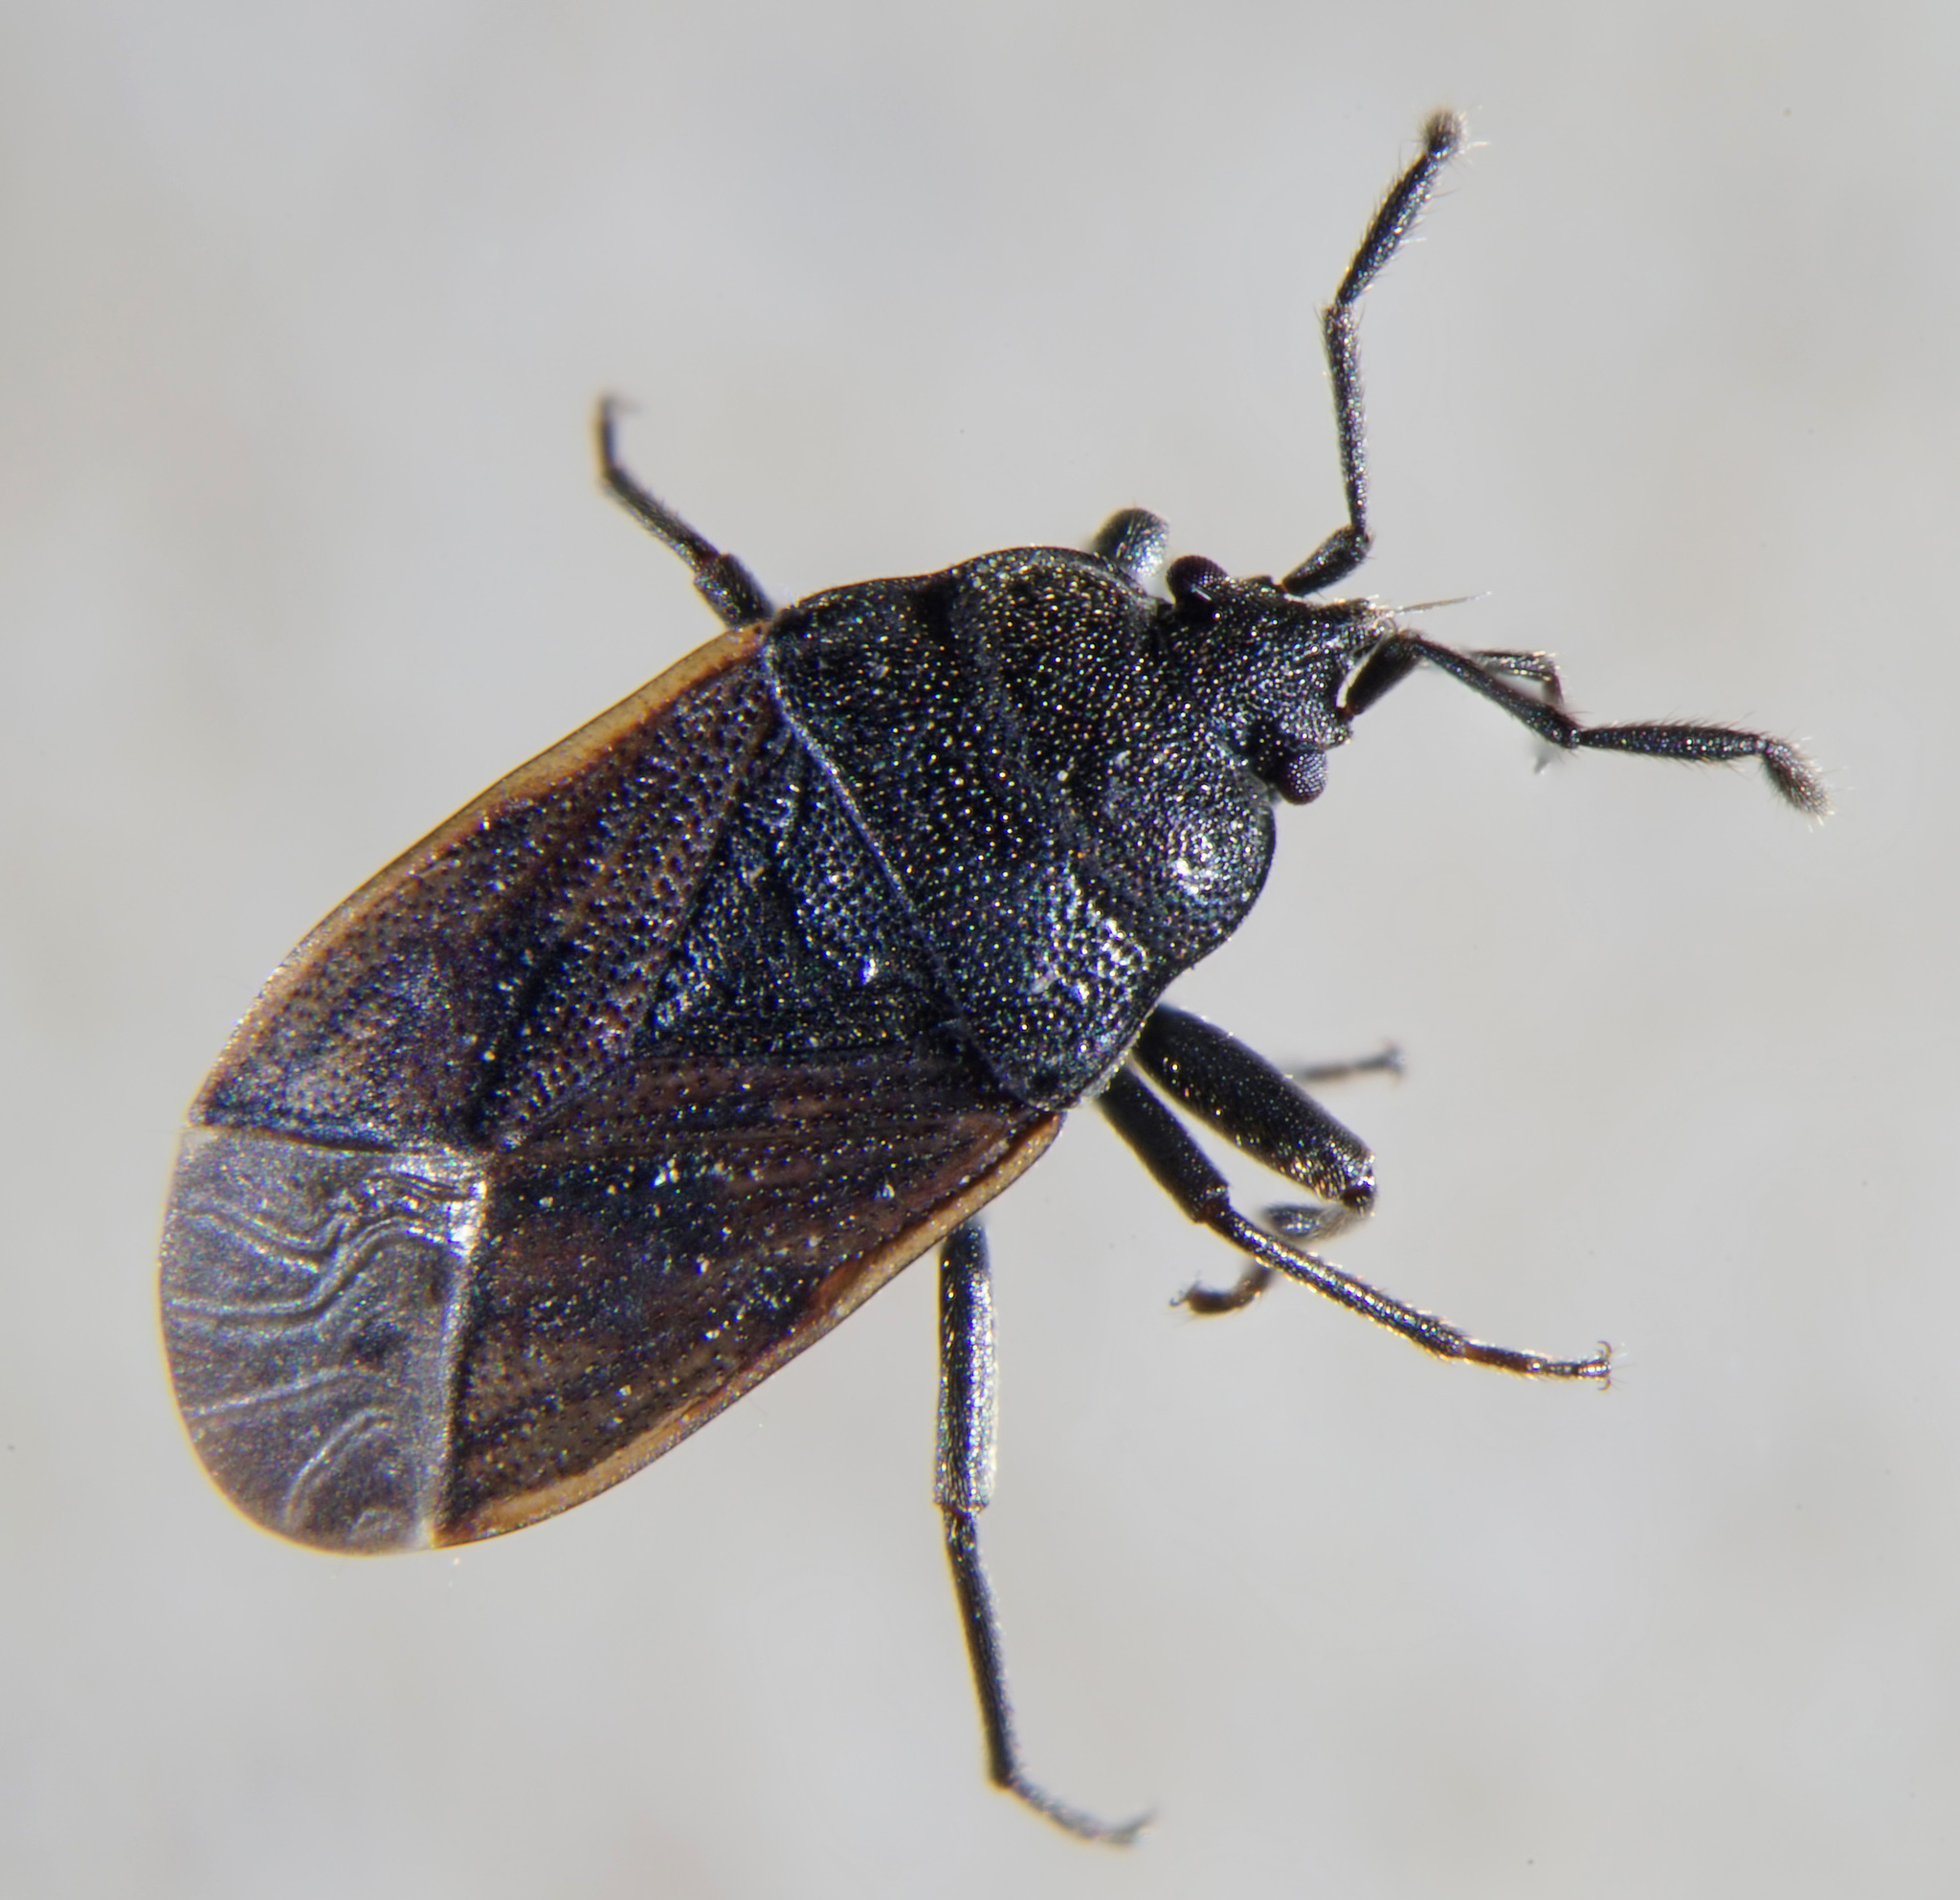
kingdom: Animalia
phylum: Arthropoda
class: Insecta
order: Hemiptera
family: Rhyparochromidae
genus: Drymus
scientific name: Drymus sylvaticus
